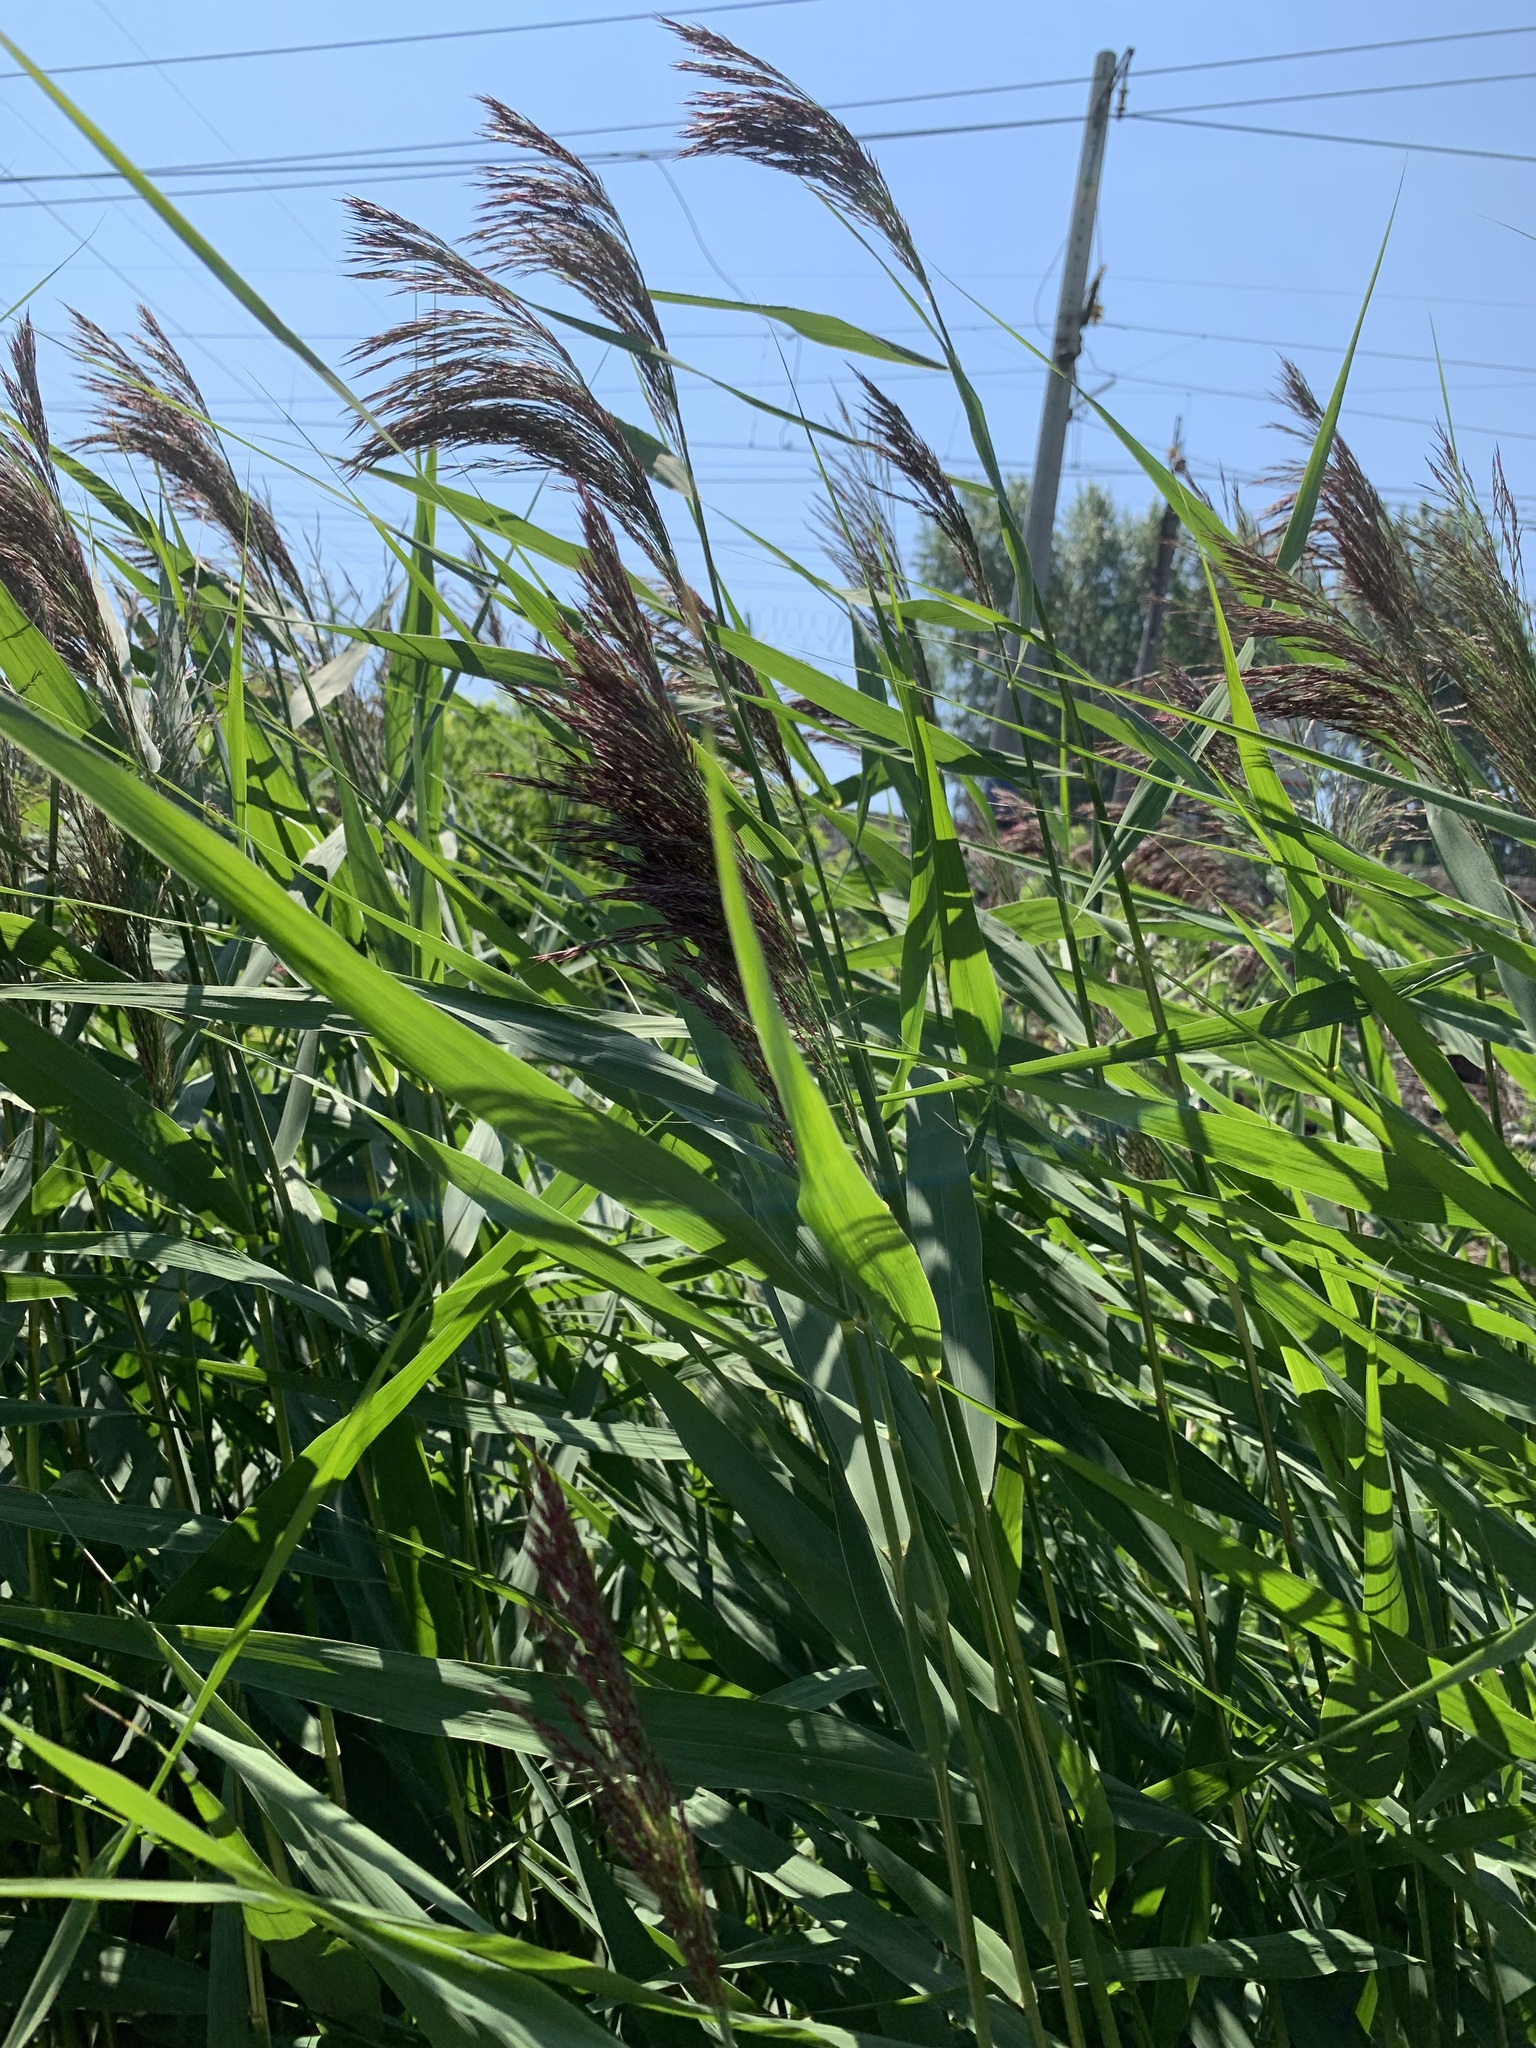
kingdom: Plantae
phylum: Tracheophyta
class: Liliopsida
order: Poales
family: Poaceae
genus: Phragmites
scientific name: Phragmites australis
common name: Common reed
